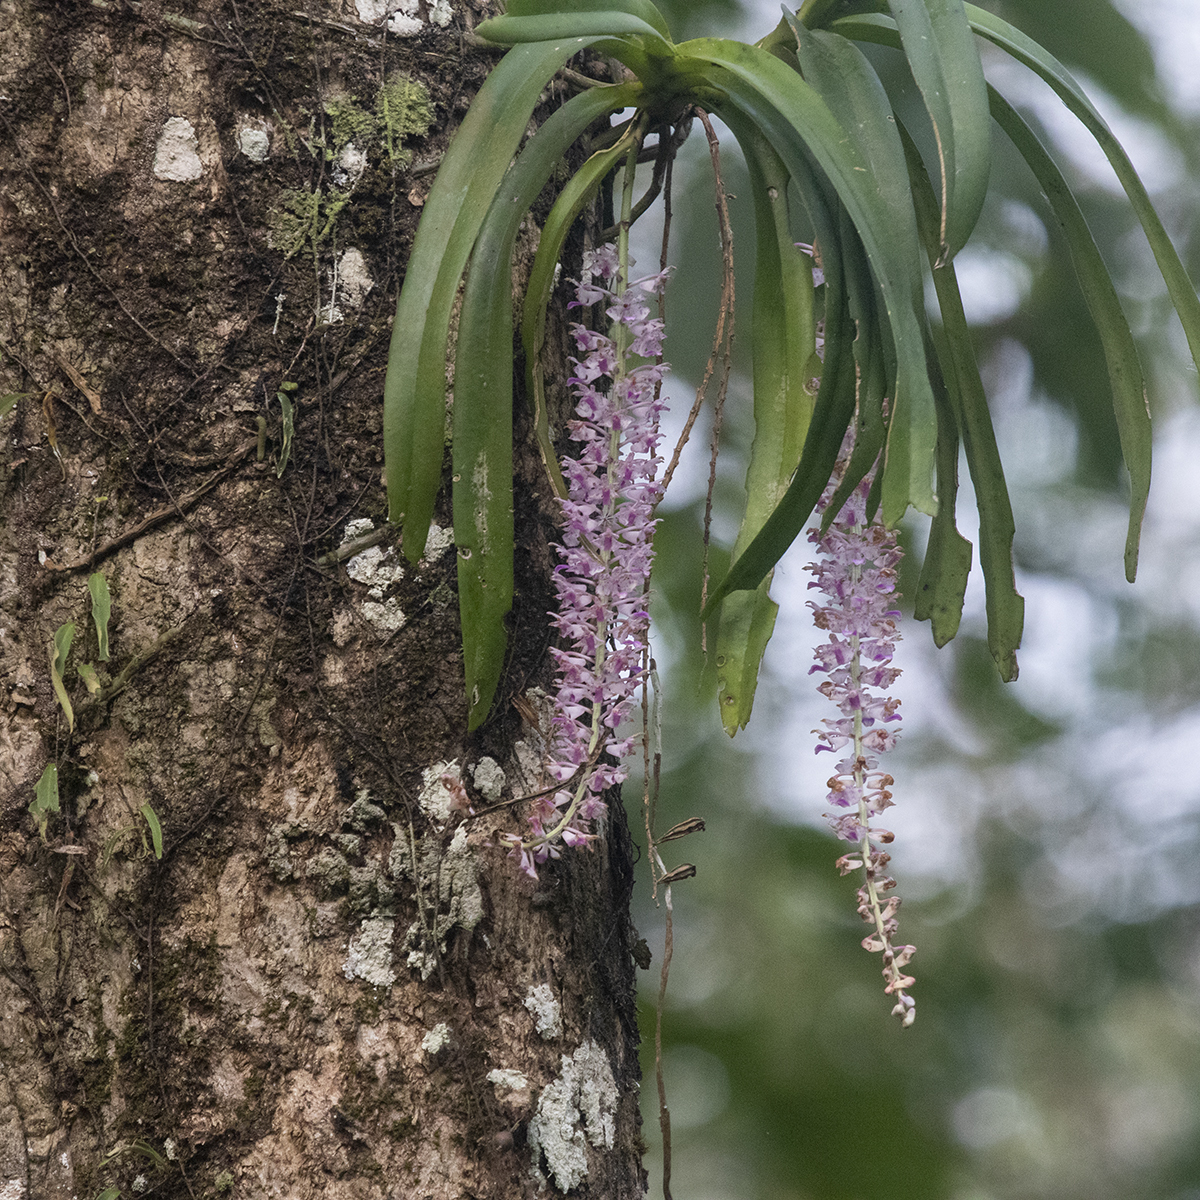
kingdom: Plantae
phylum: Tracheophyta
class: Liliopsida
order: Asparagales
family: Orchidaceae
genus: Rhynchostylis
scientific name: Rhynchostylis retusa
